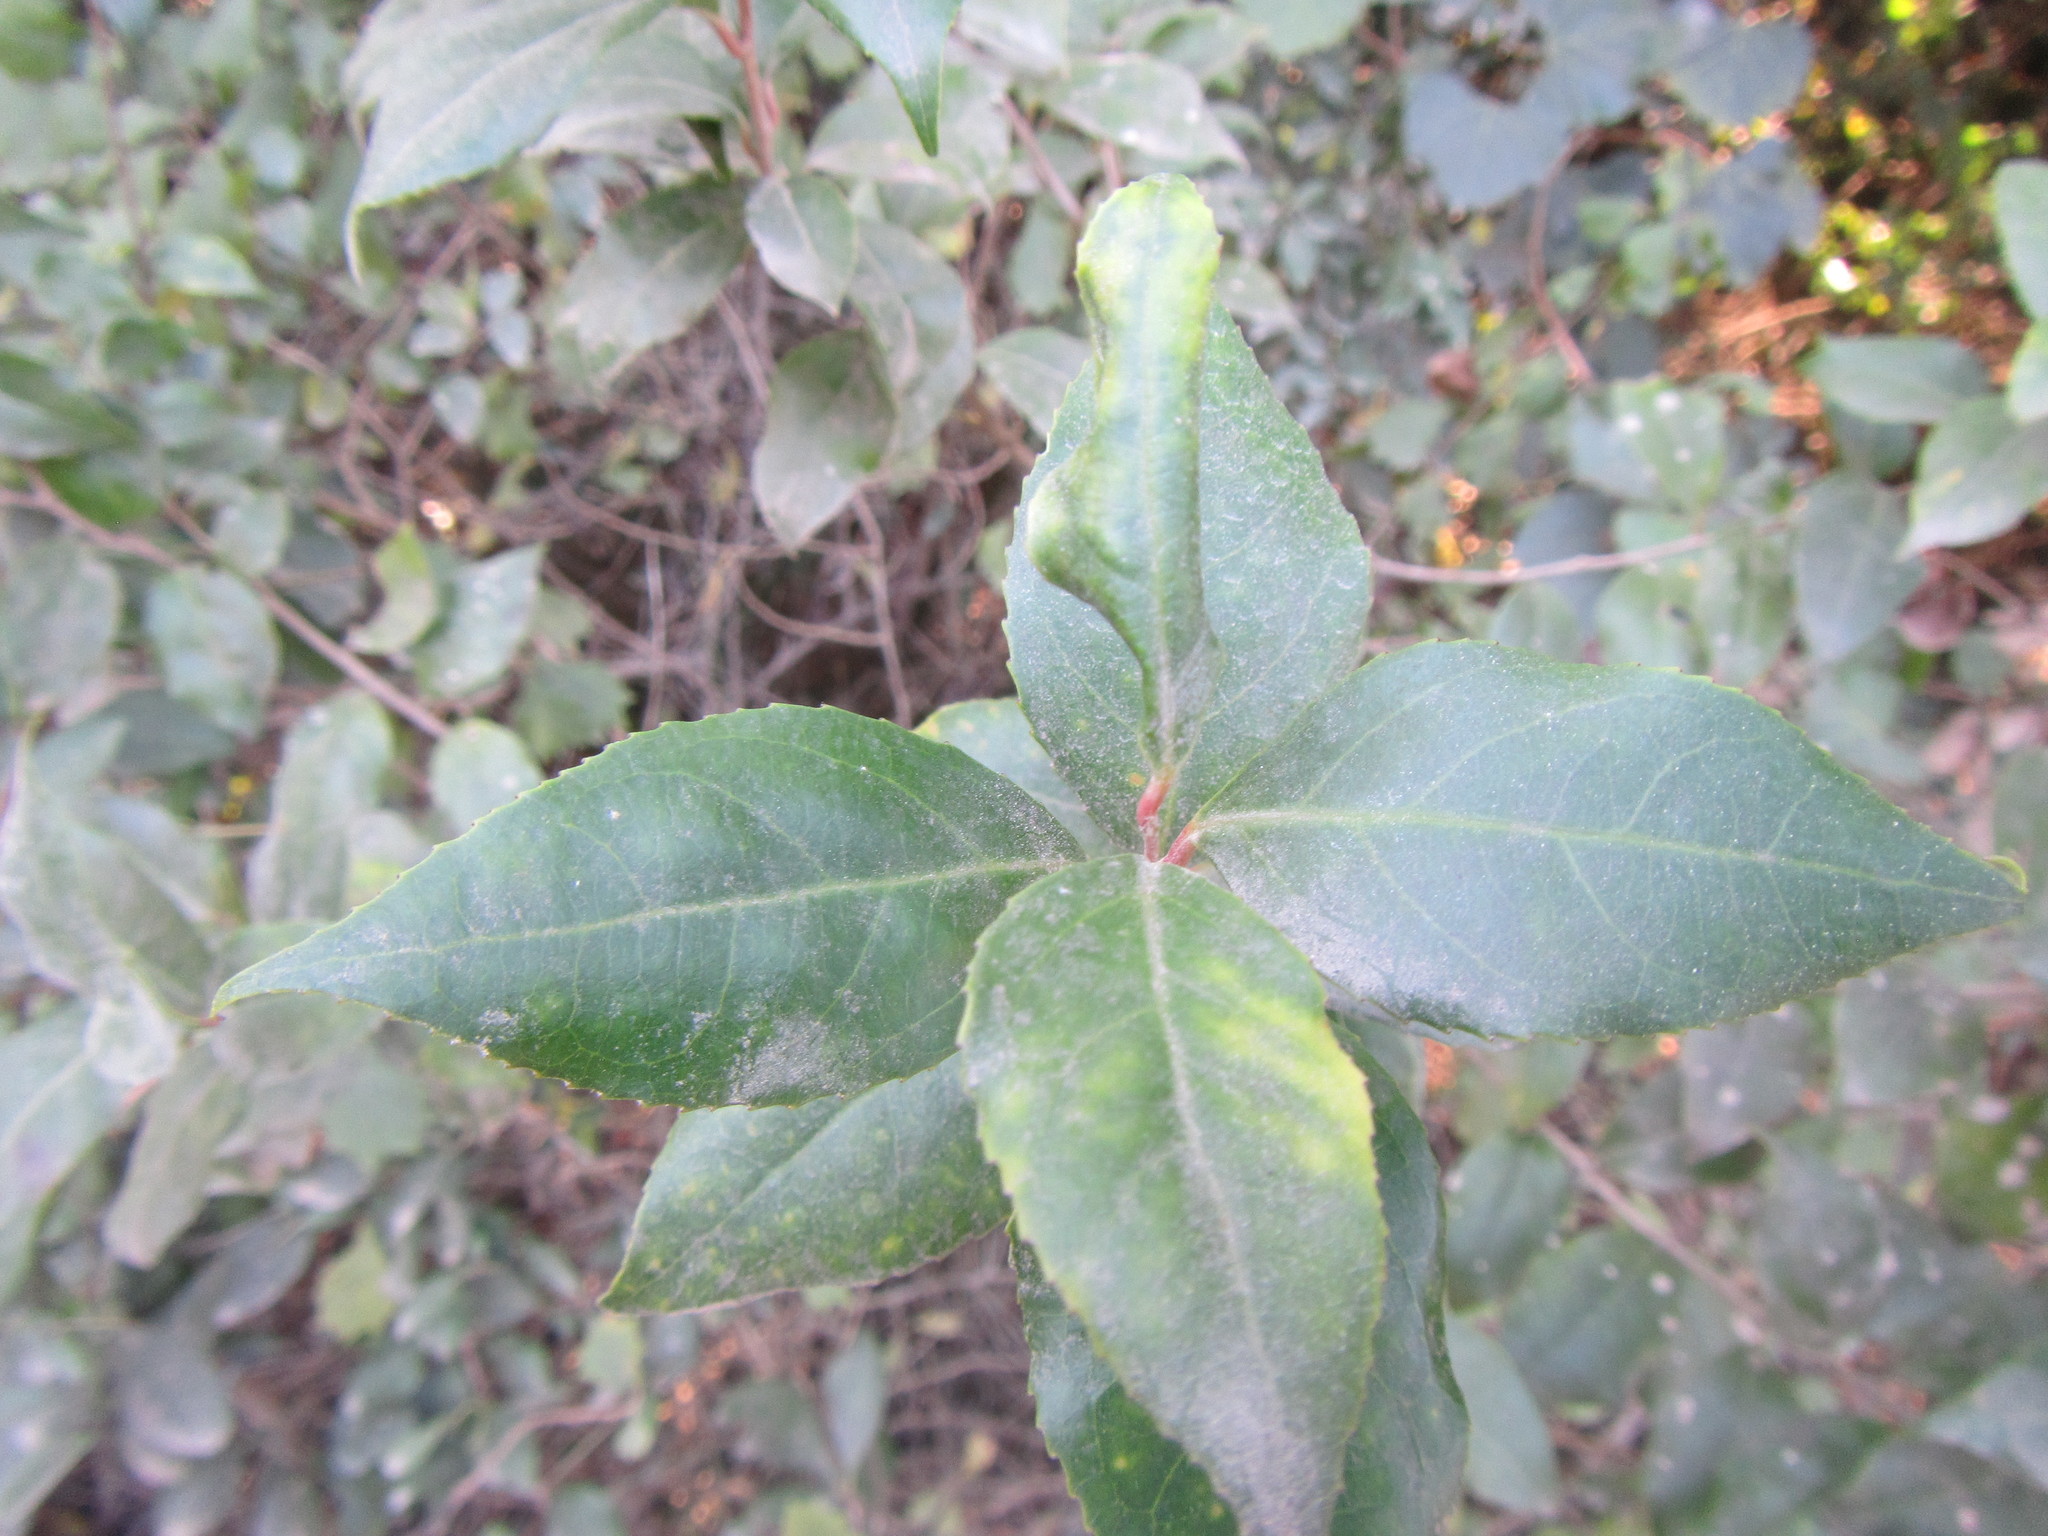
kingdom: Plantae
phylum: Tracheophyta
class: Magnoliopsida
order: Malpighiales
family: Salicaceae
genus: Scolopia
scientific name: Scolopia mundii
